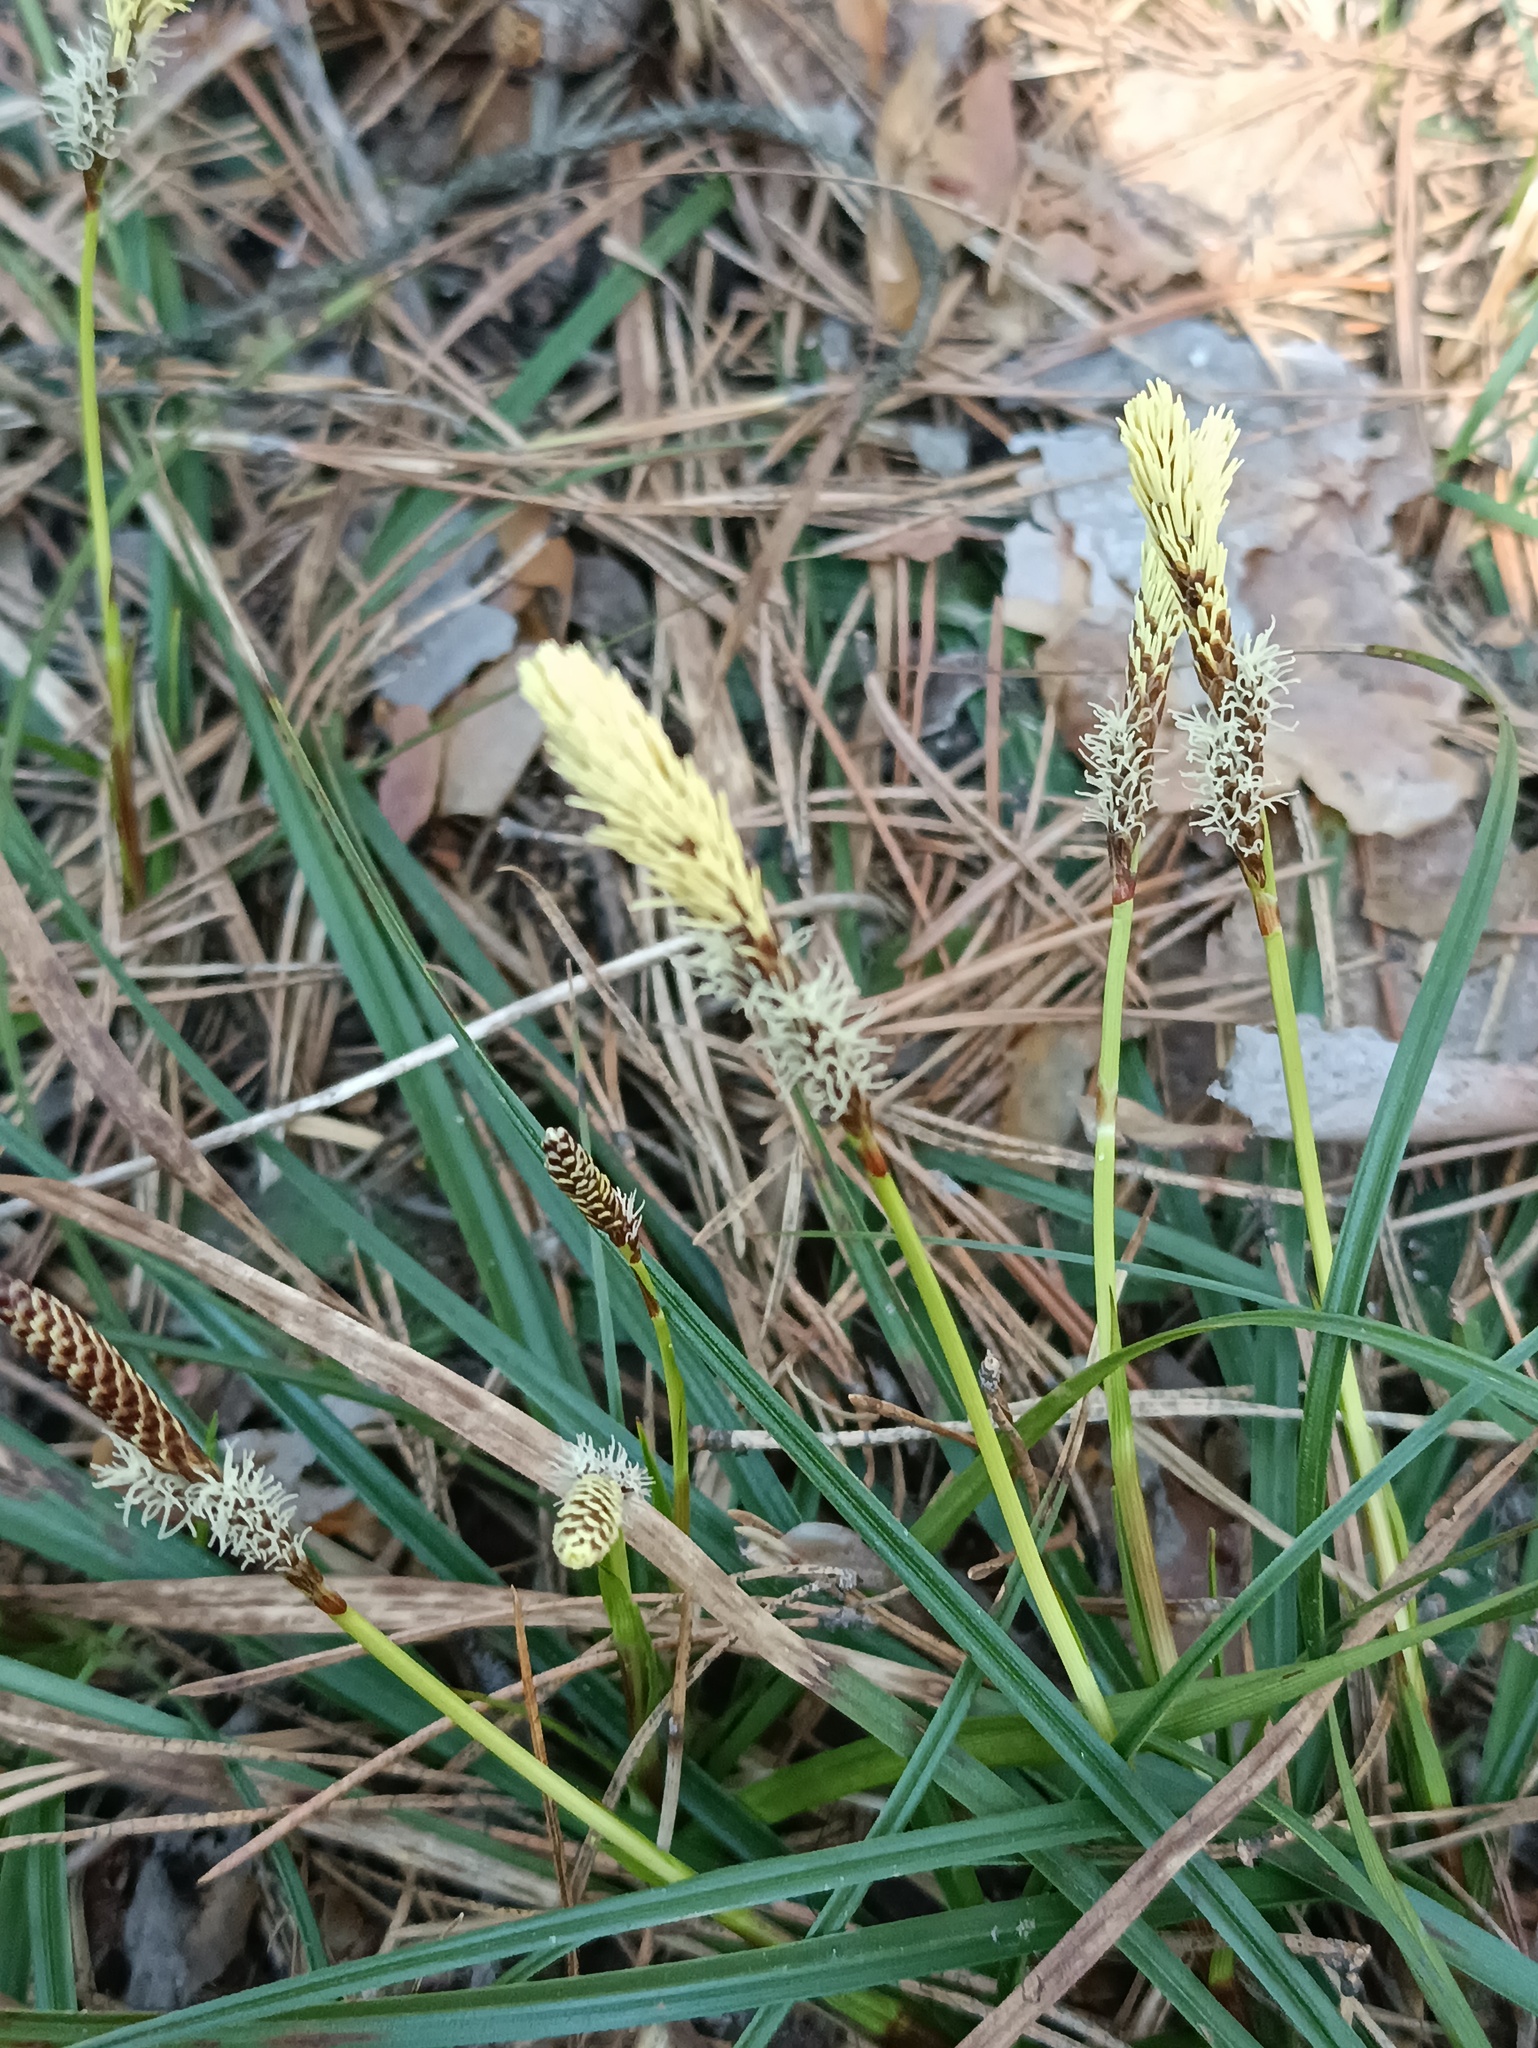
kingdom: Plantae
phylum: Tracheophyta
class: Liliopsida
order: Poales
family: Cyperaceae
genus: Carex
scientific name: Carex ericetorum
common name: Rare spring-sedge
